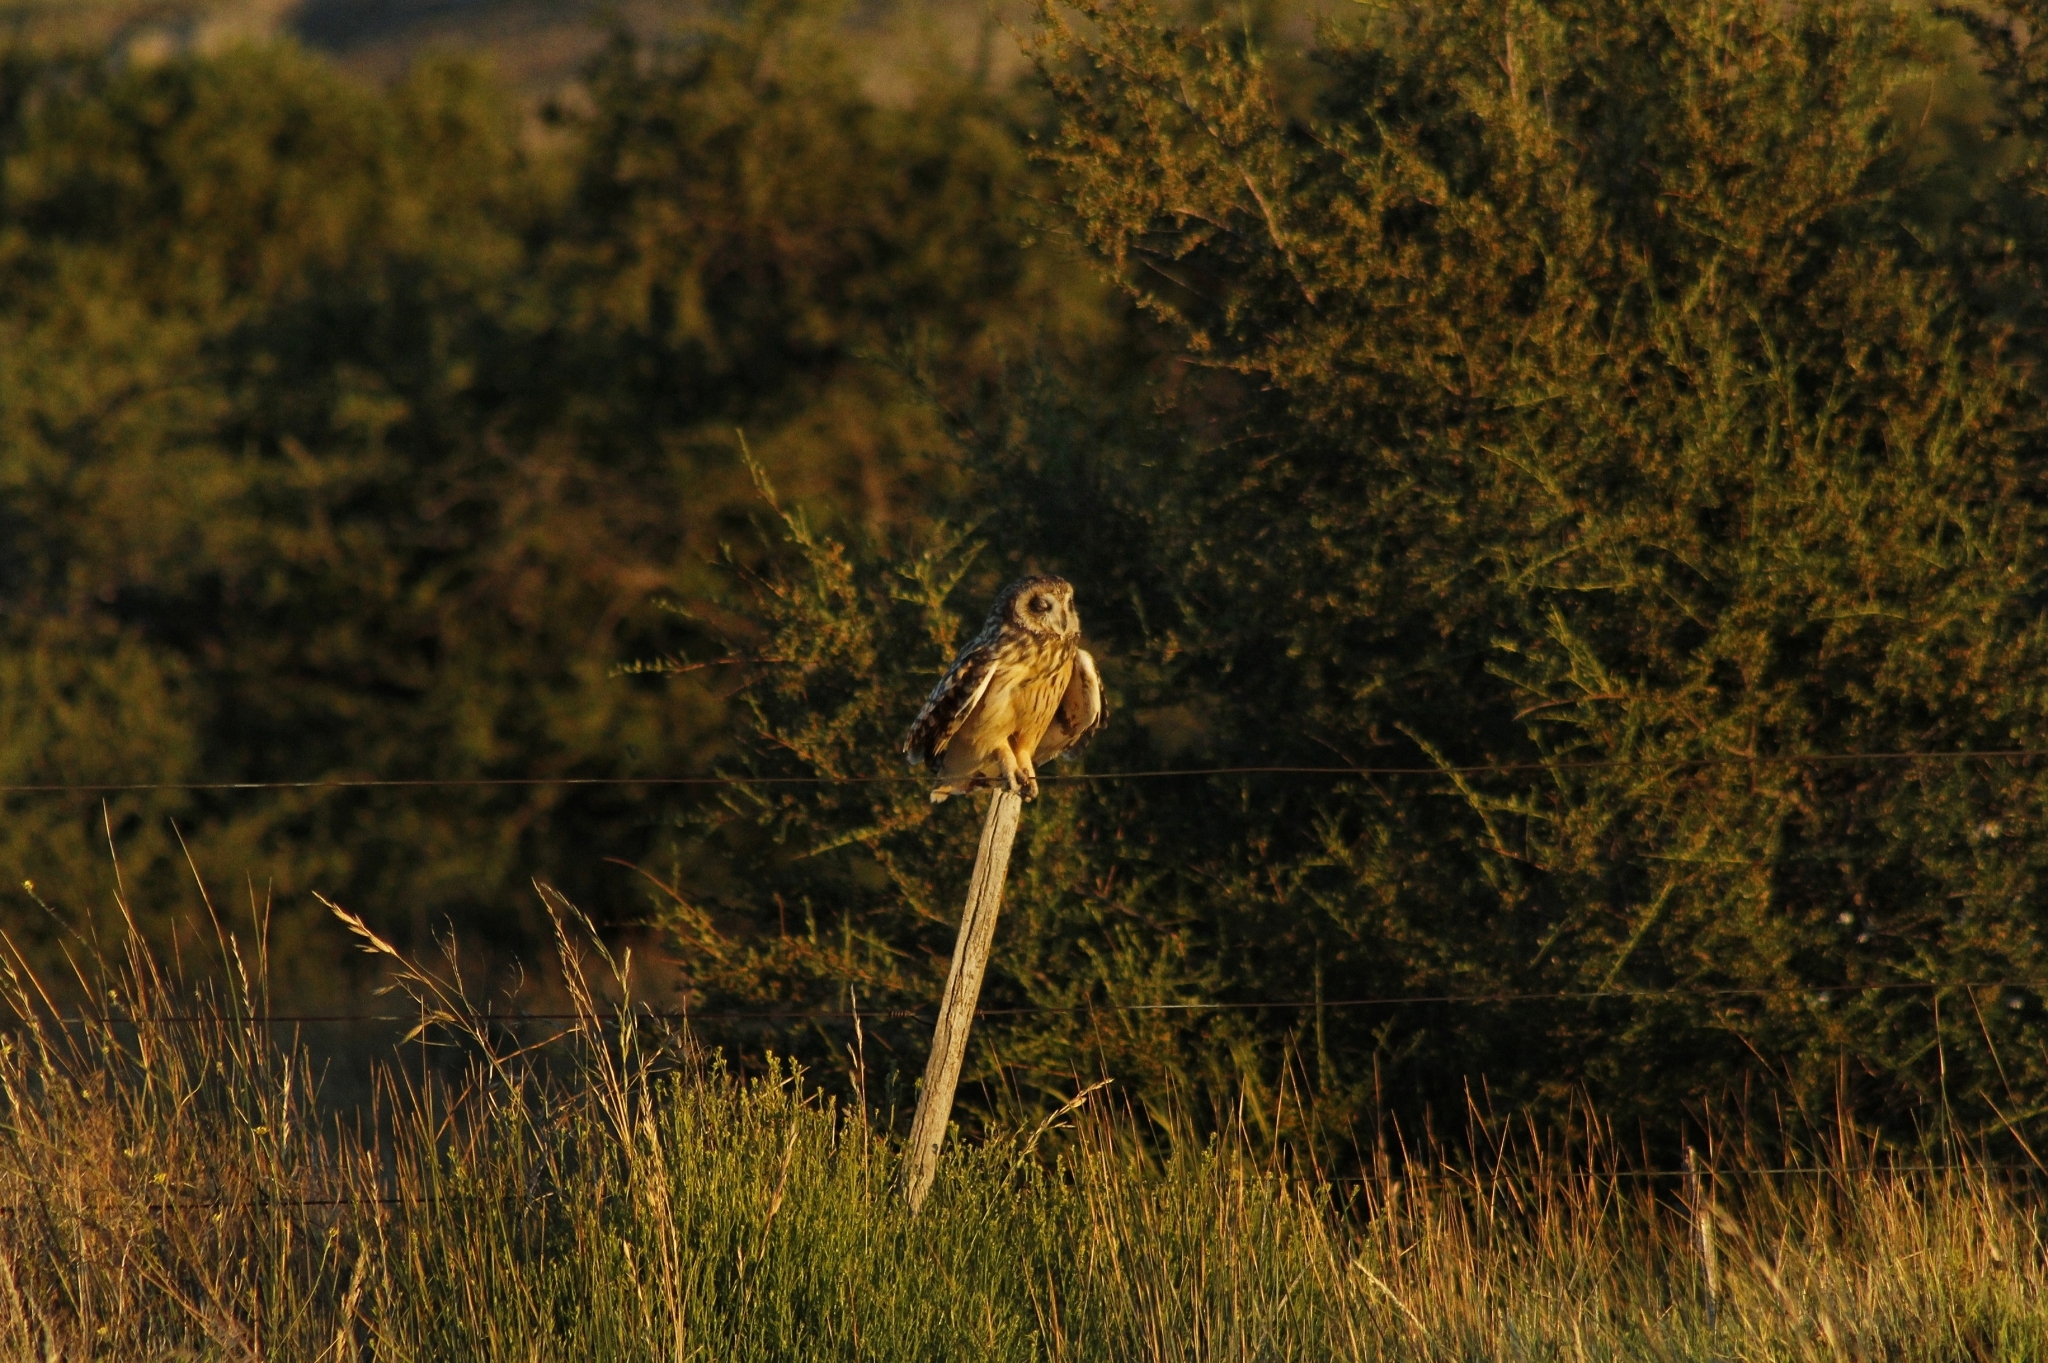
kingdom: Animalia
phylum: Chordata
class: Aves
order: Strigiformes
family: Strigidae
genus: Asio
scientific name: Asio flammeus
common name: Short-eared owl
